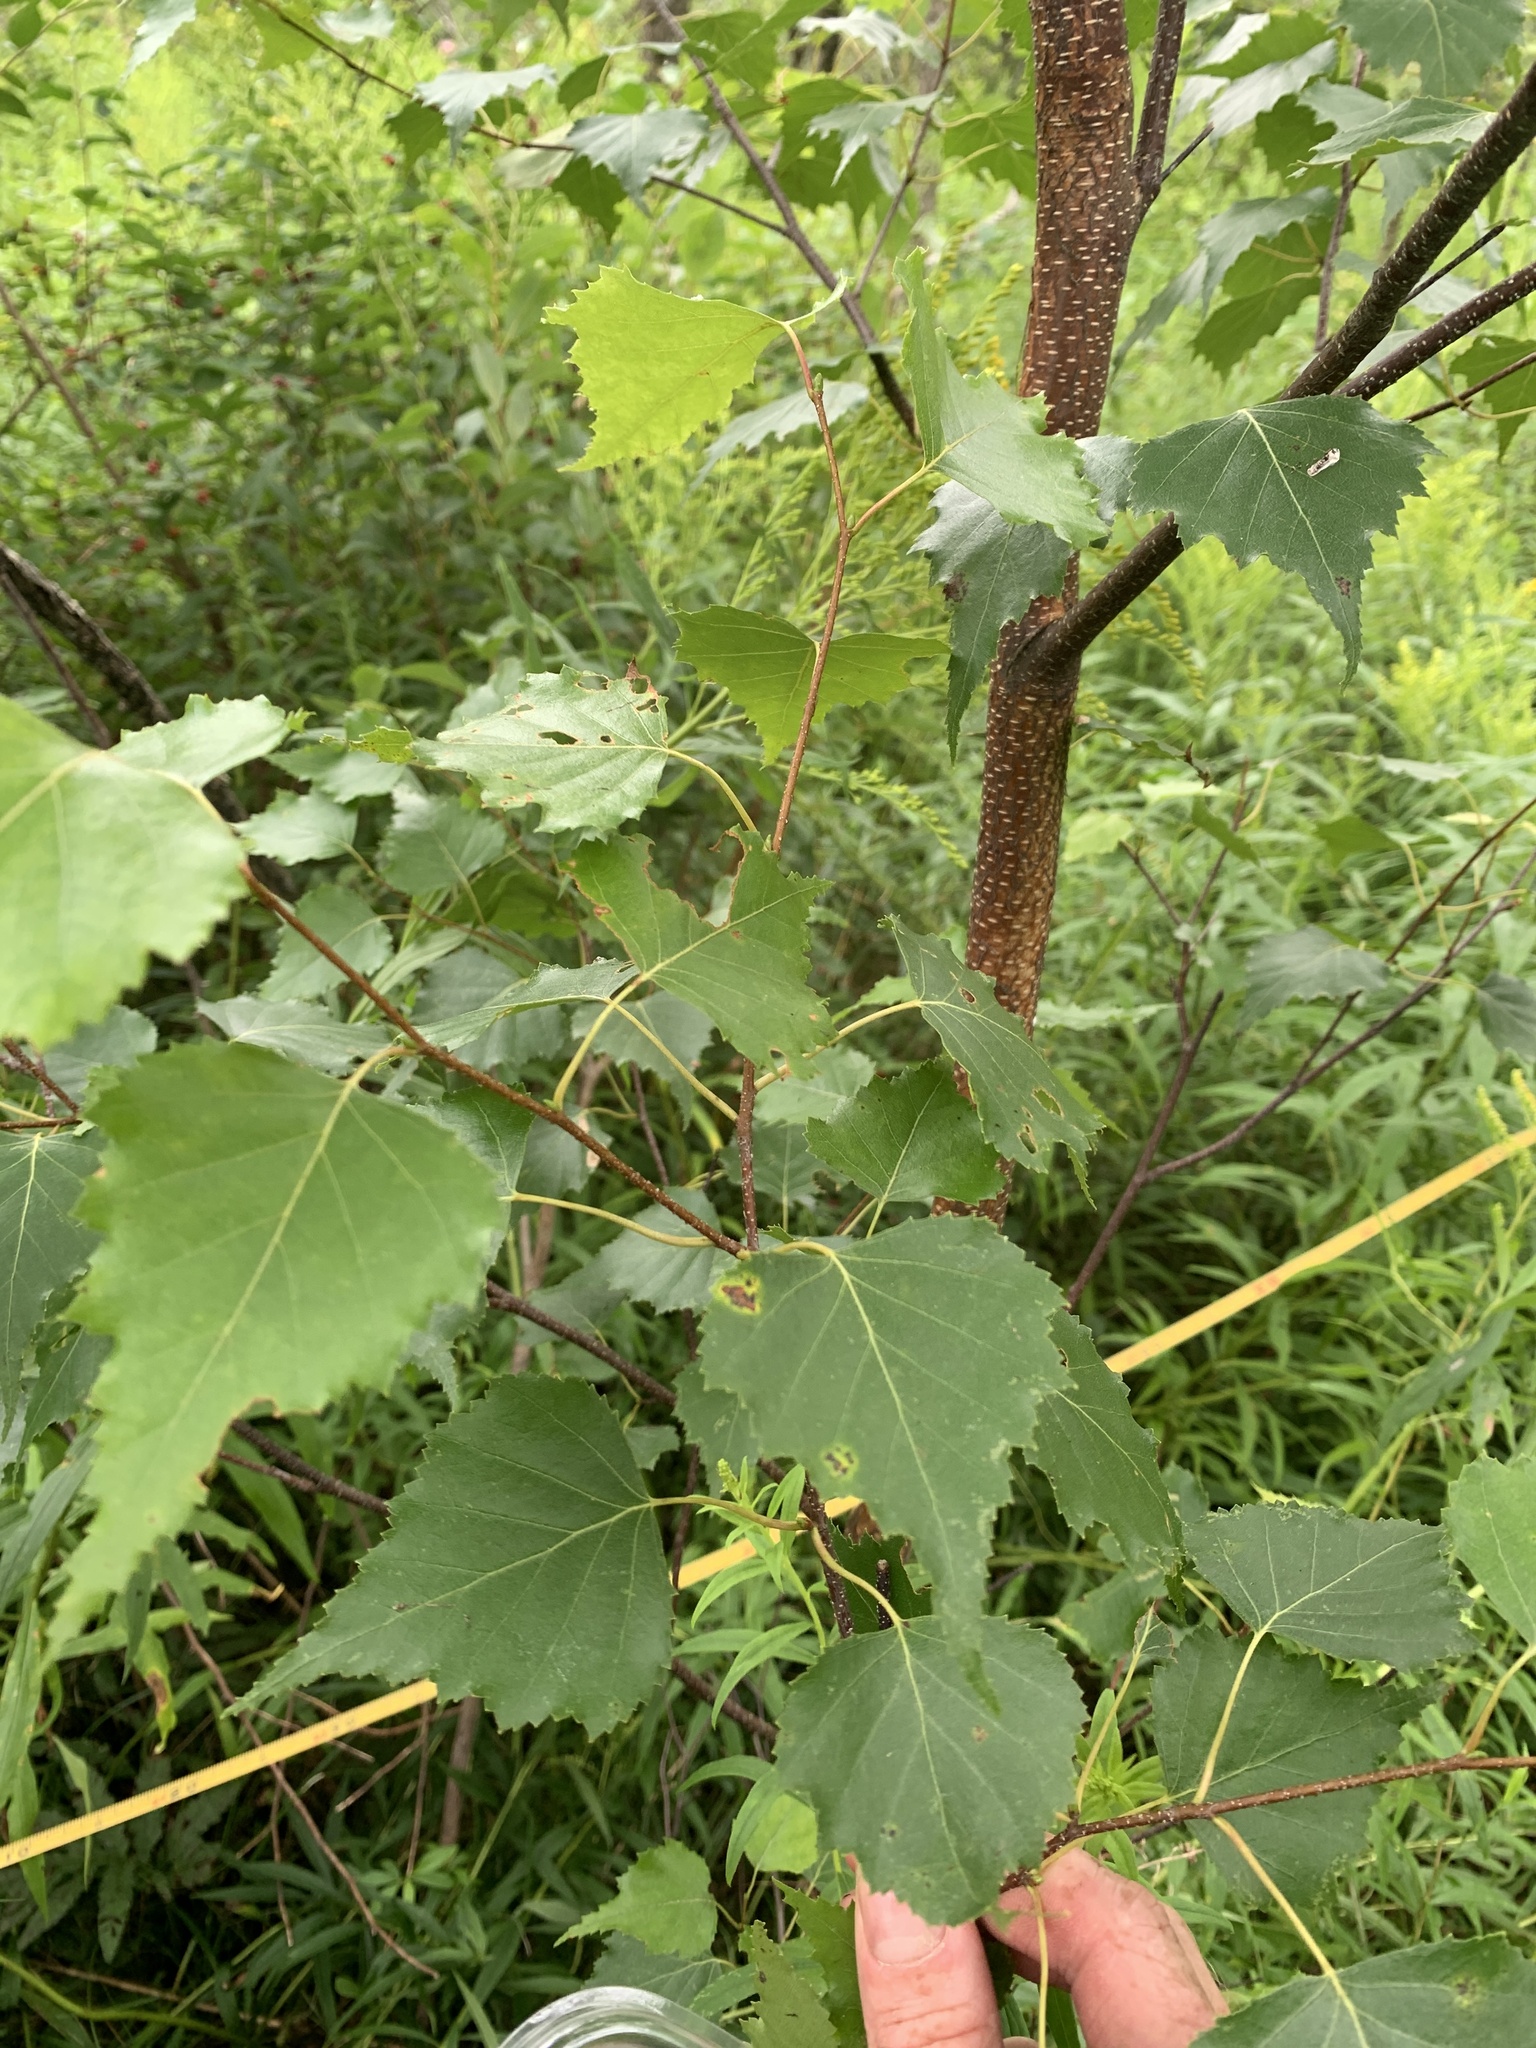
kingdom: Plantae
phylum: Tracheophyta
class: Magnoliopsida
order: Fagales
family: Betulaceae
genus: Betula
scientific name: Betula populifolia
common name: Fire birch
